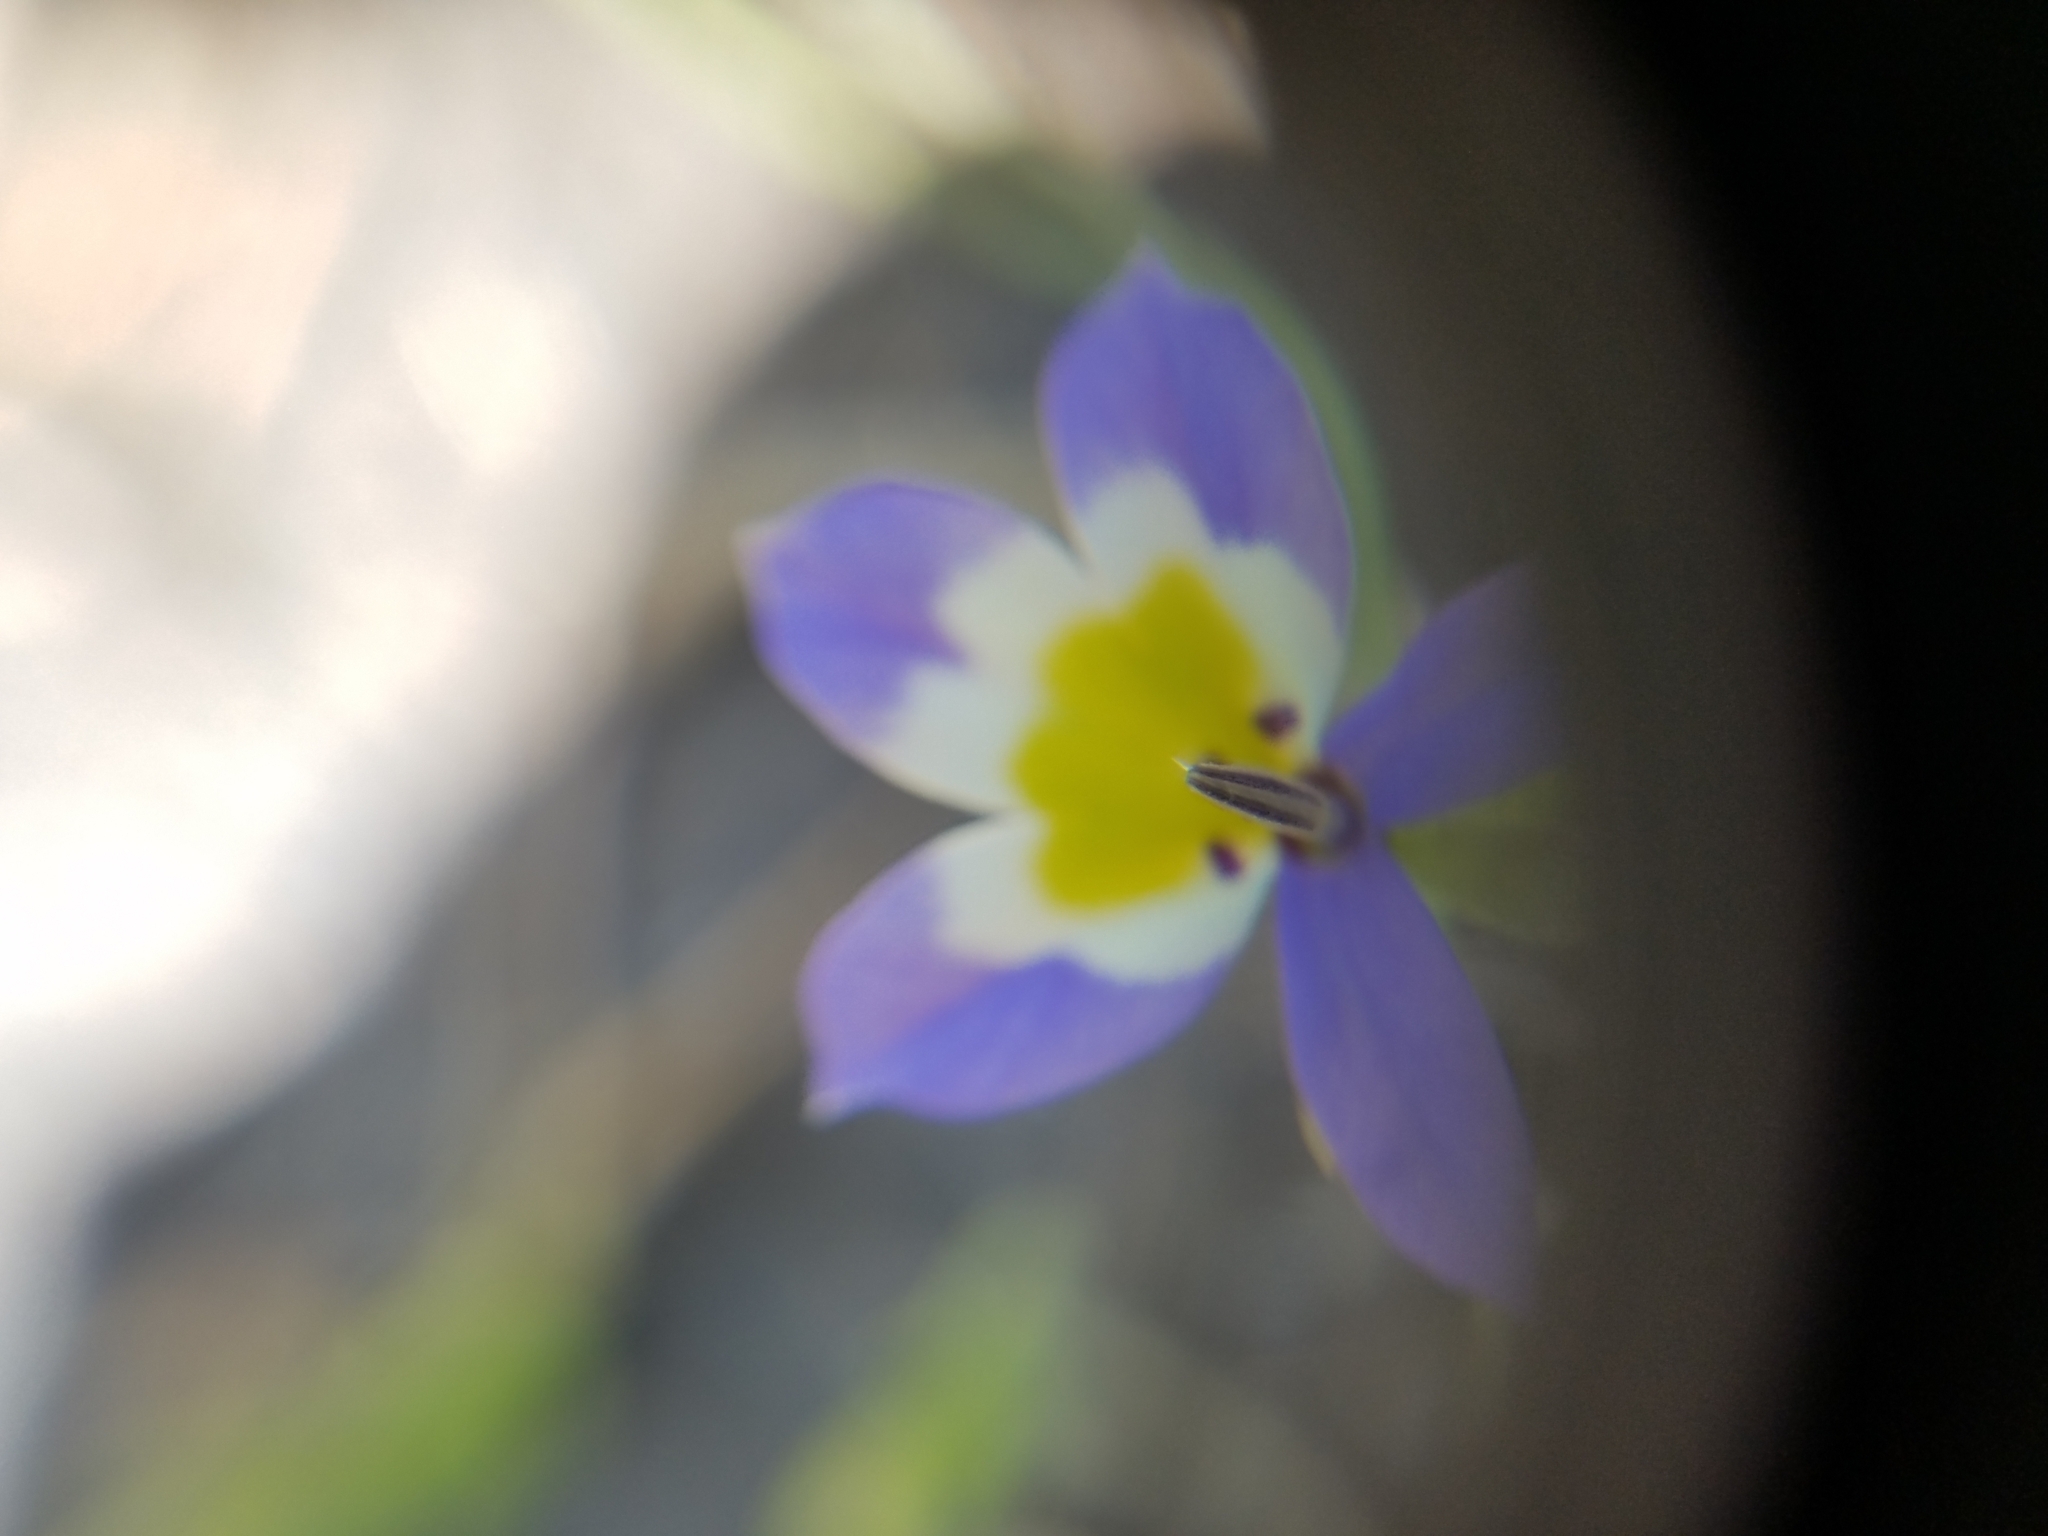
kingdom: Plantae
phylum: Tracheophyta
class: Magnoliopsida
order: Asterales
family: Campanulaceae
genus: Downingia
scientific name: Downingia pulchella
